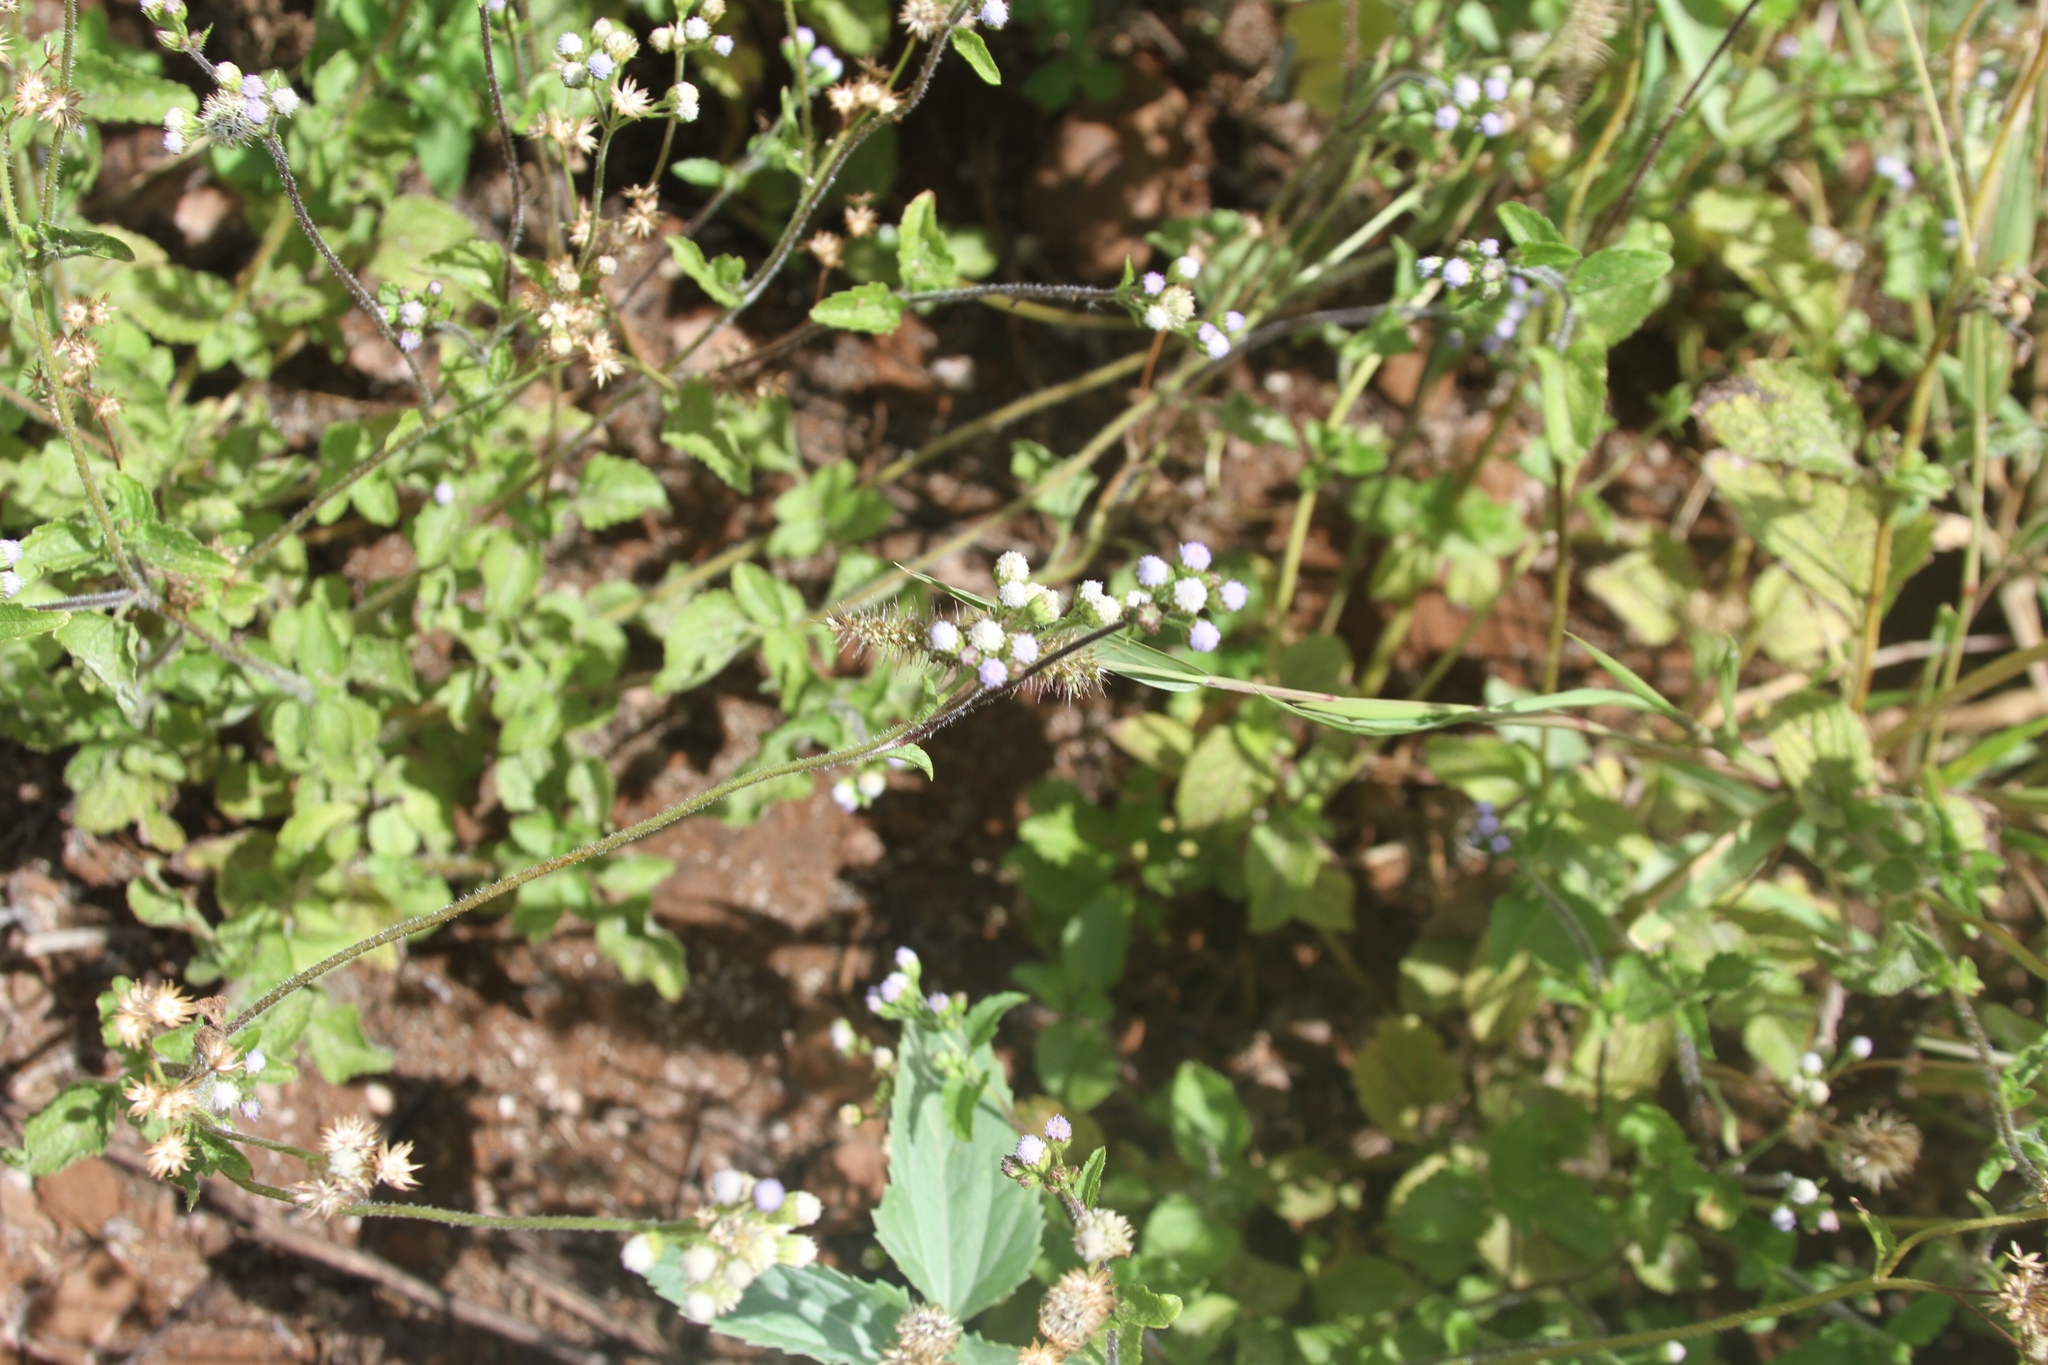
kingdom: Plantae
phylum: Tracheophyta
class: Magnoliopsida
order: Asterales
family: Asteraceae
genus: Ageratum
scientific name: Ageratum conyzoides
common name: Tropical whiteweed
